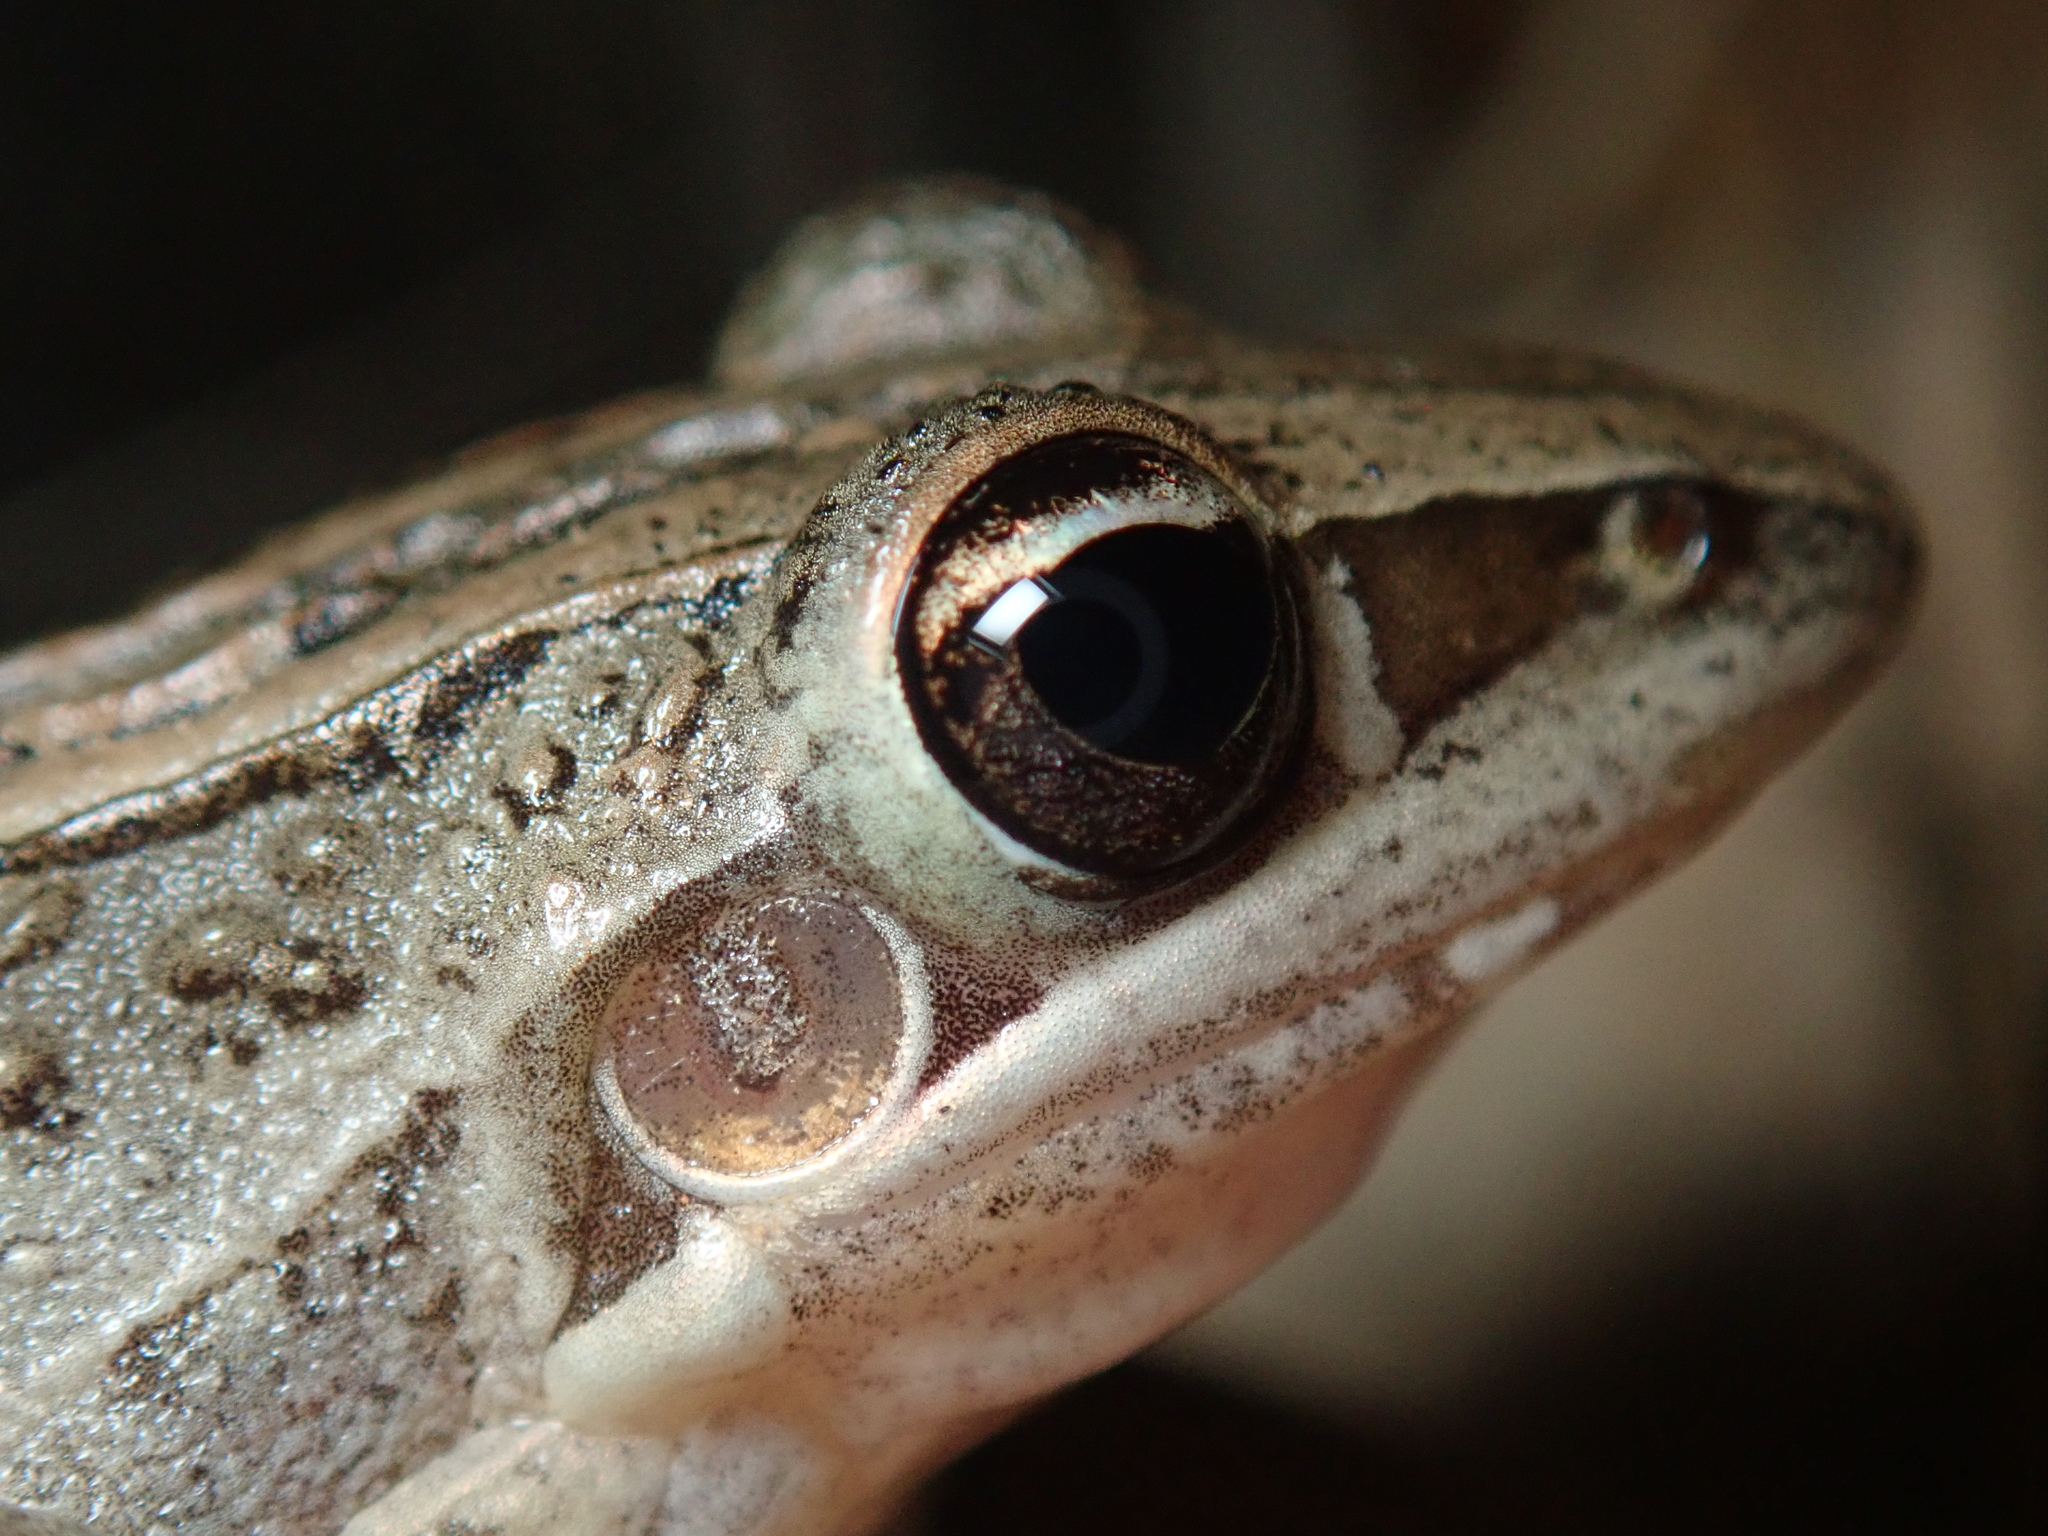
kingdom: Animalia
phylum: Chordata
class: Amphibia
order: Anura
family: Pelodryadidae
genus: Litoria
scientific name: Litoria nasuta
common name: Rocket frog
